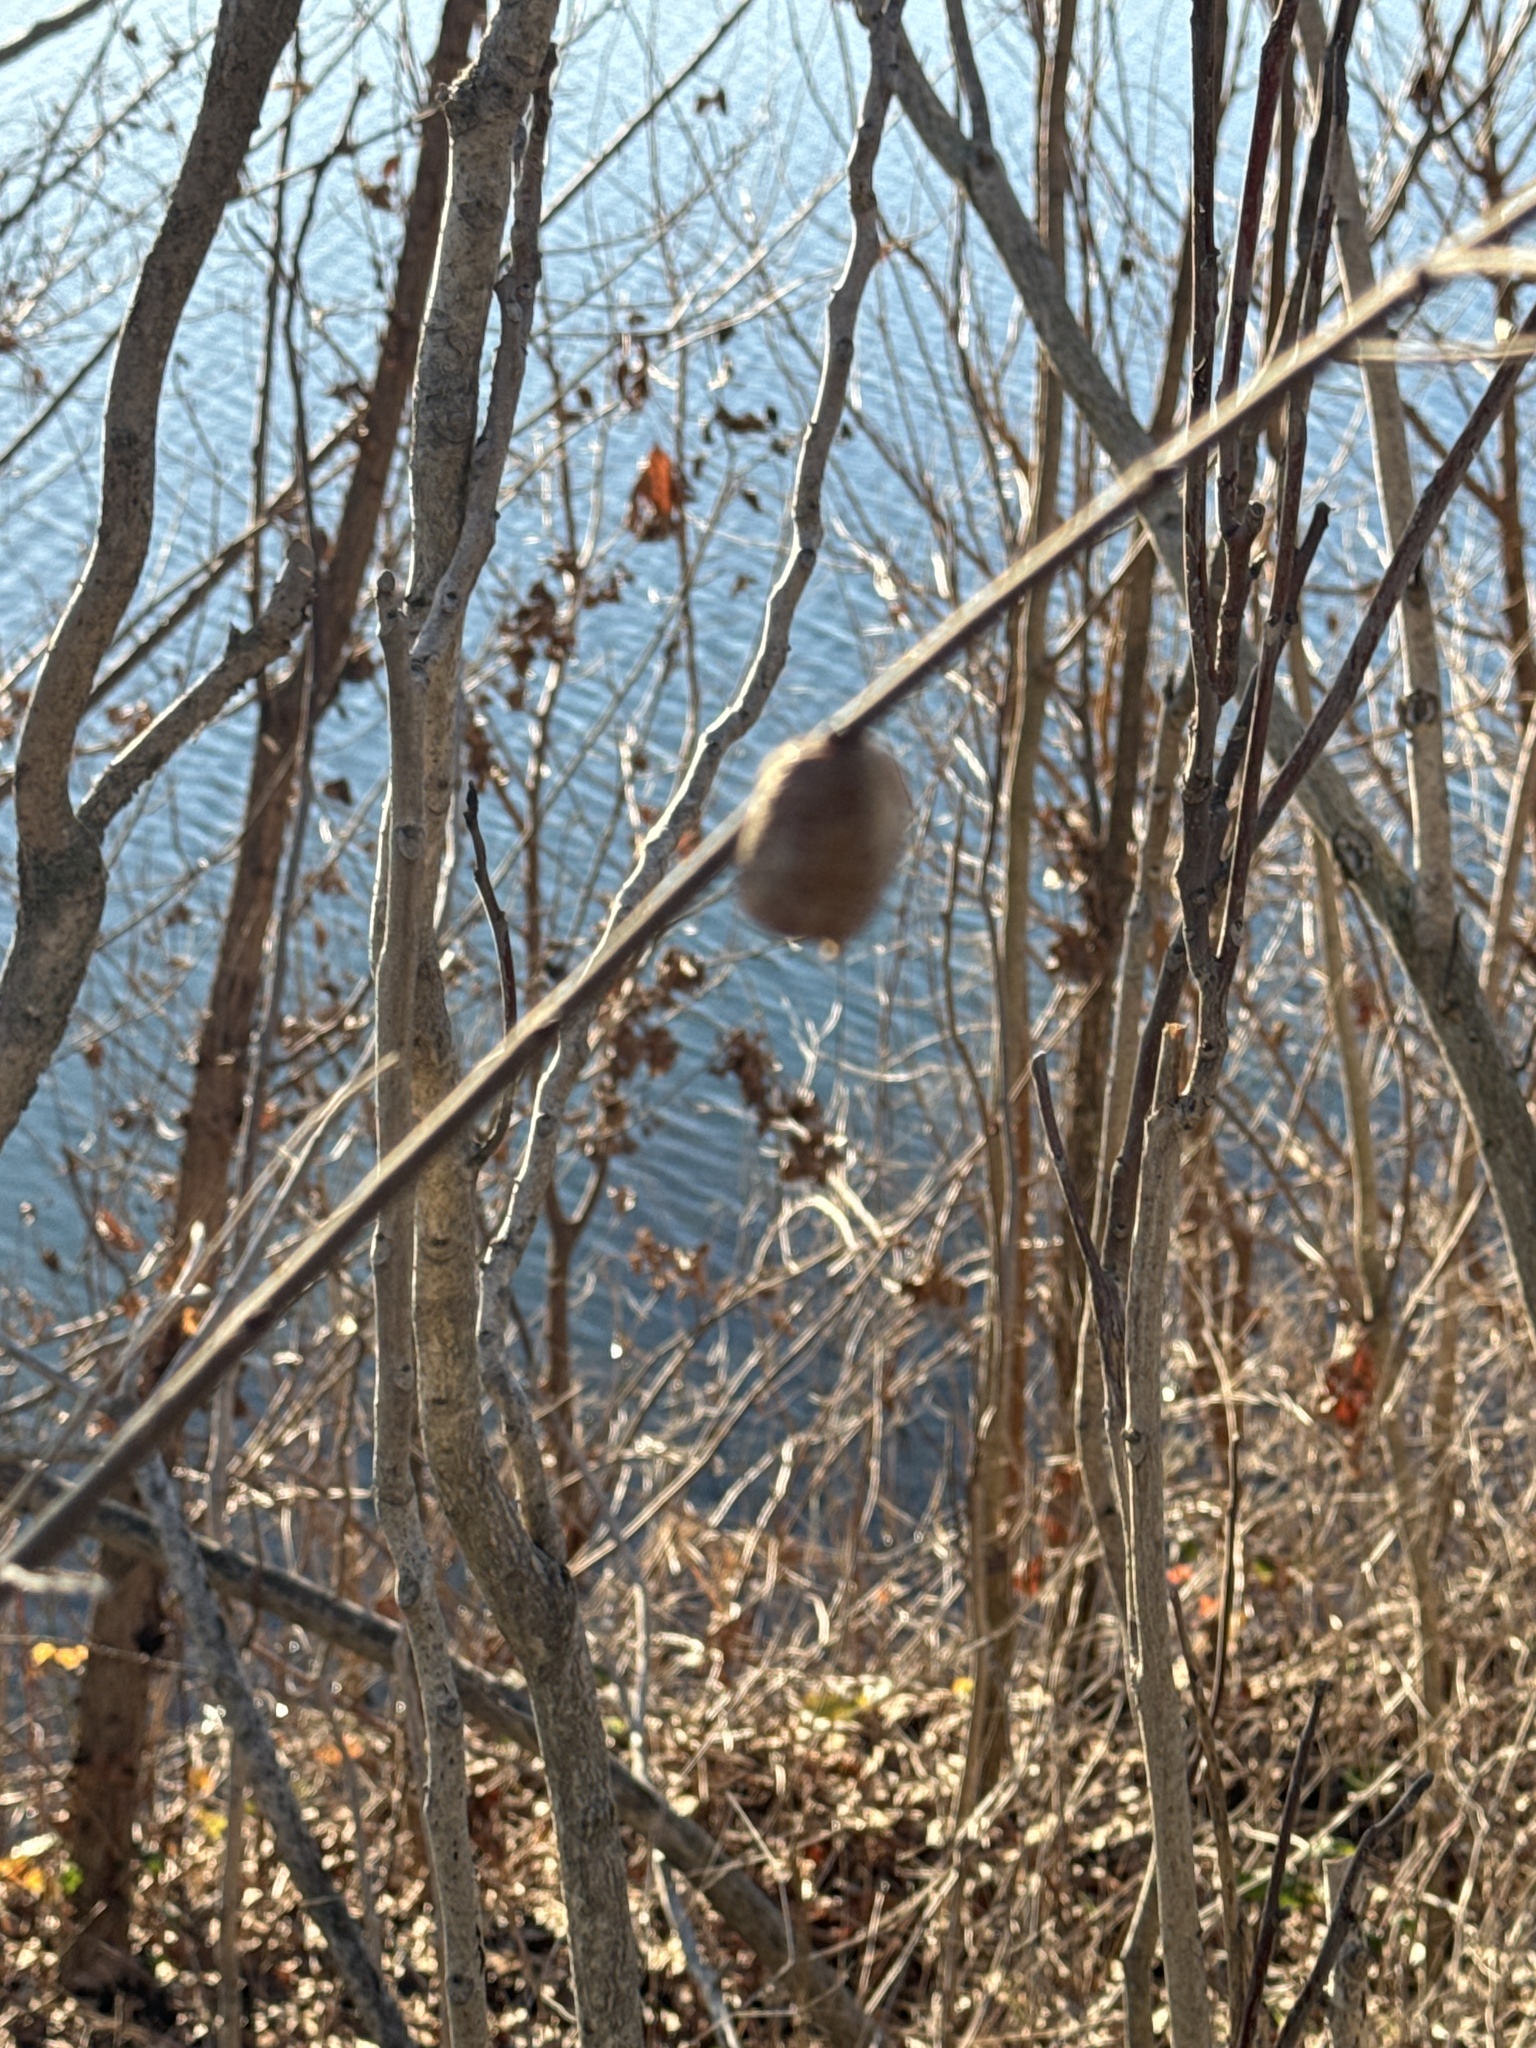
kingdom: Animalia
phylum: Arthropoda
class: Insecta
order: Mantodea
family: Mantidae
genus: Hierodula
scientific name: Hierodula transcaucasica
